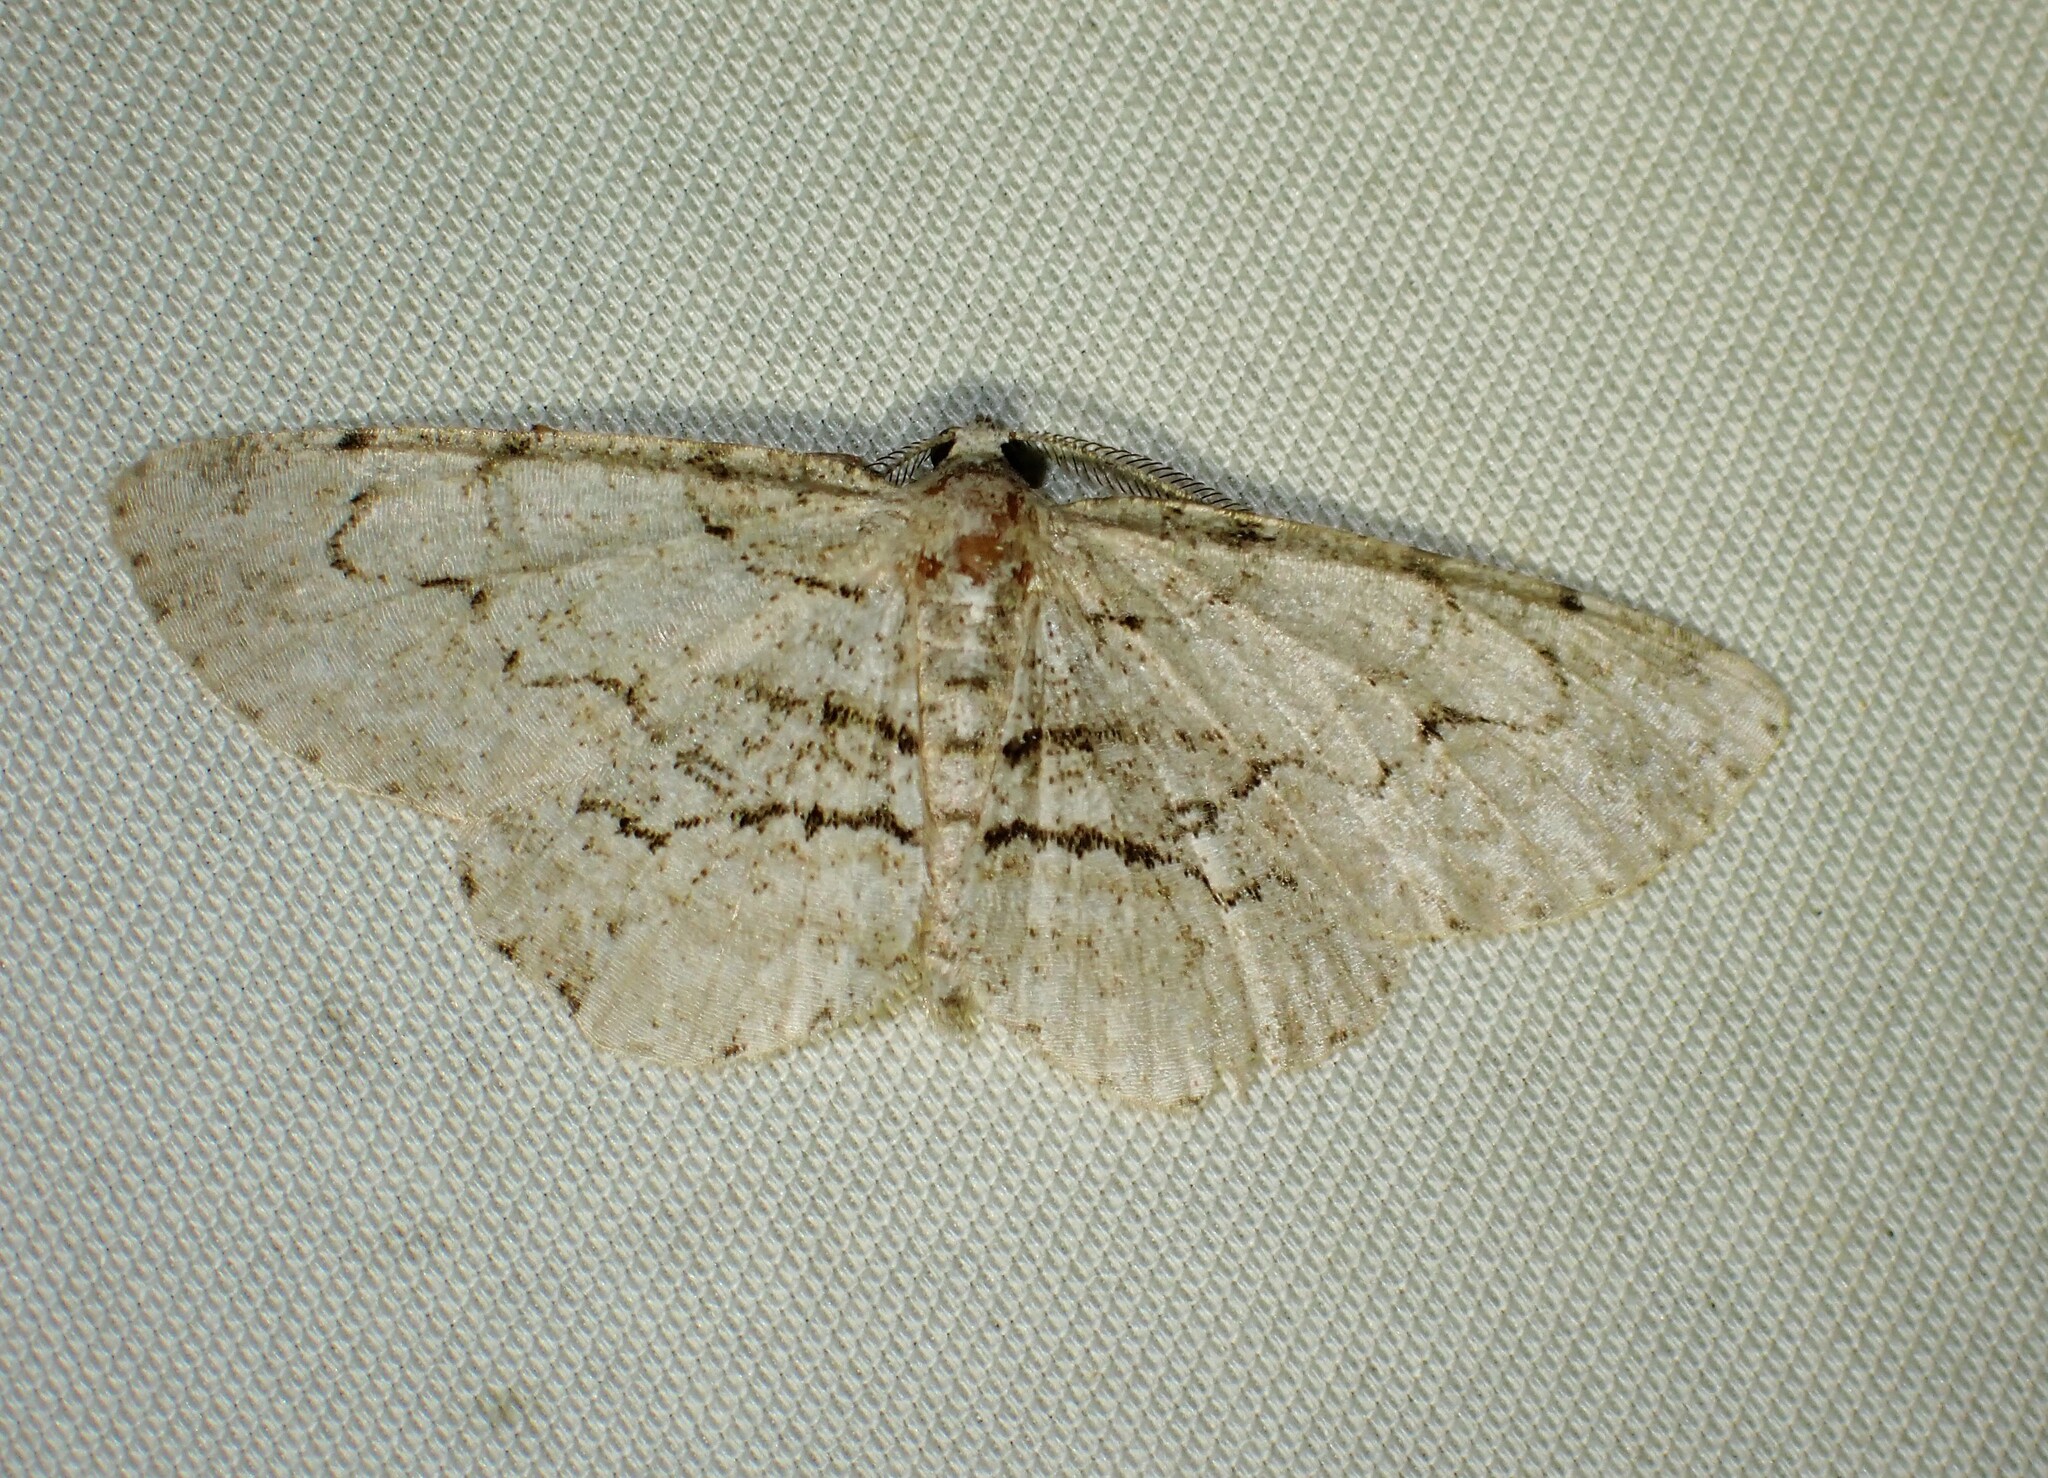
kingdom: Animalia
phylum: Arthropoda
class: Insecta
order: Lepidoptera
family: Geometridae
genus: Iridopsis
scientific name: Iridopsis ephyraria
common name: Pale-winged gray
